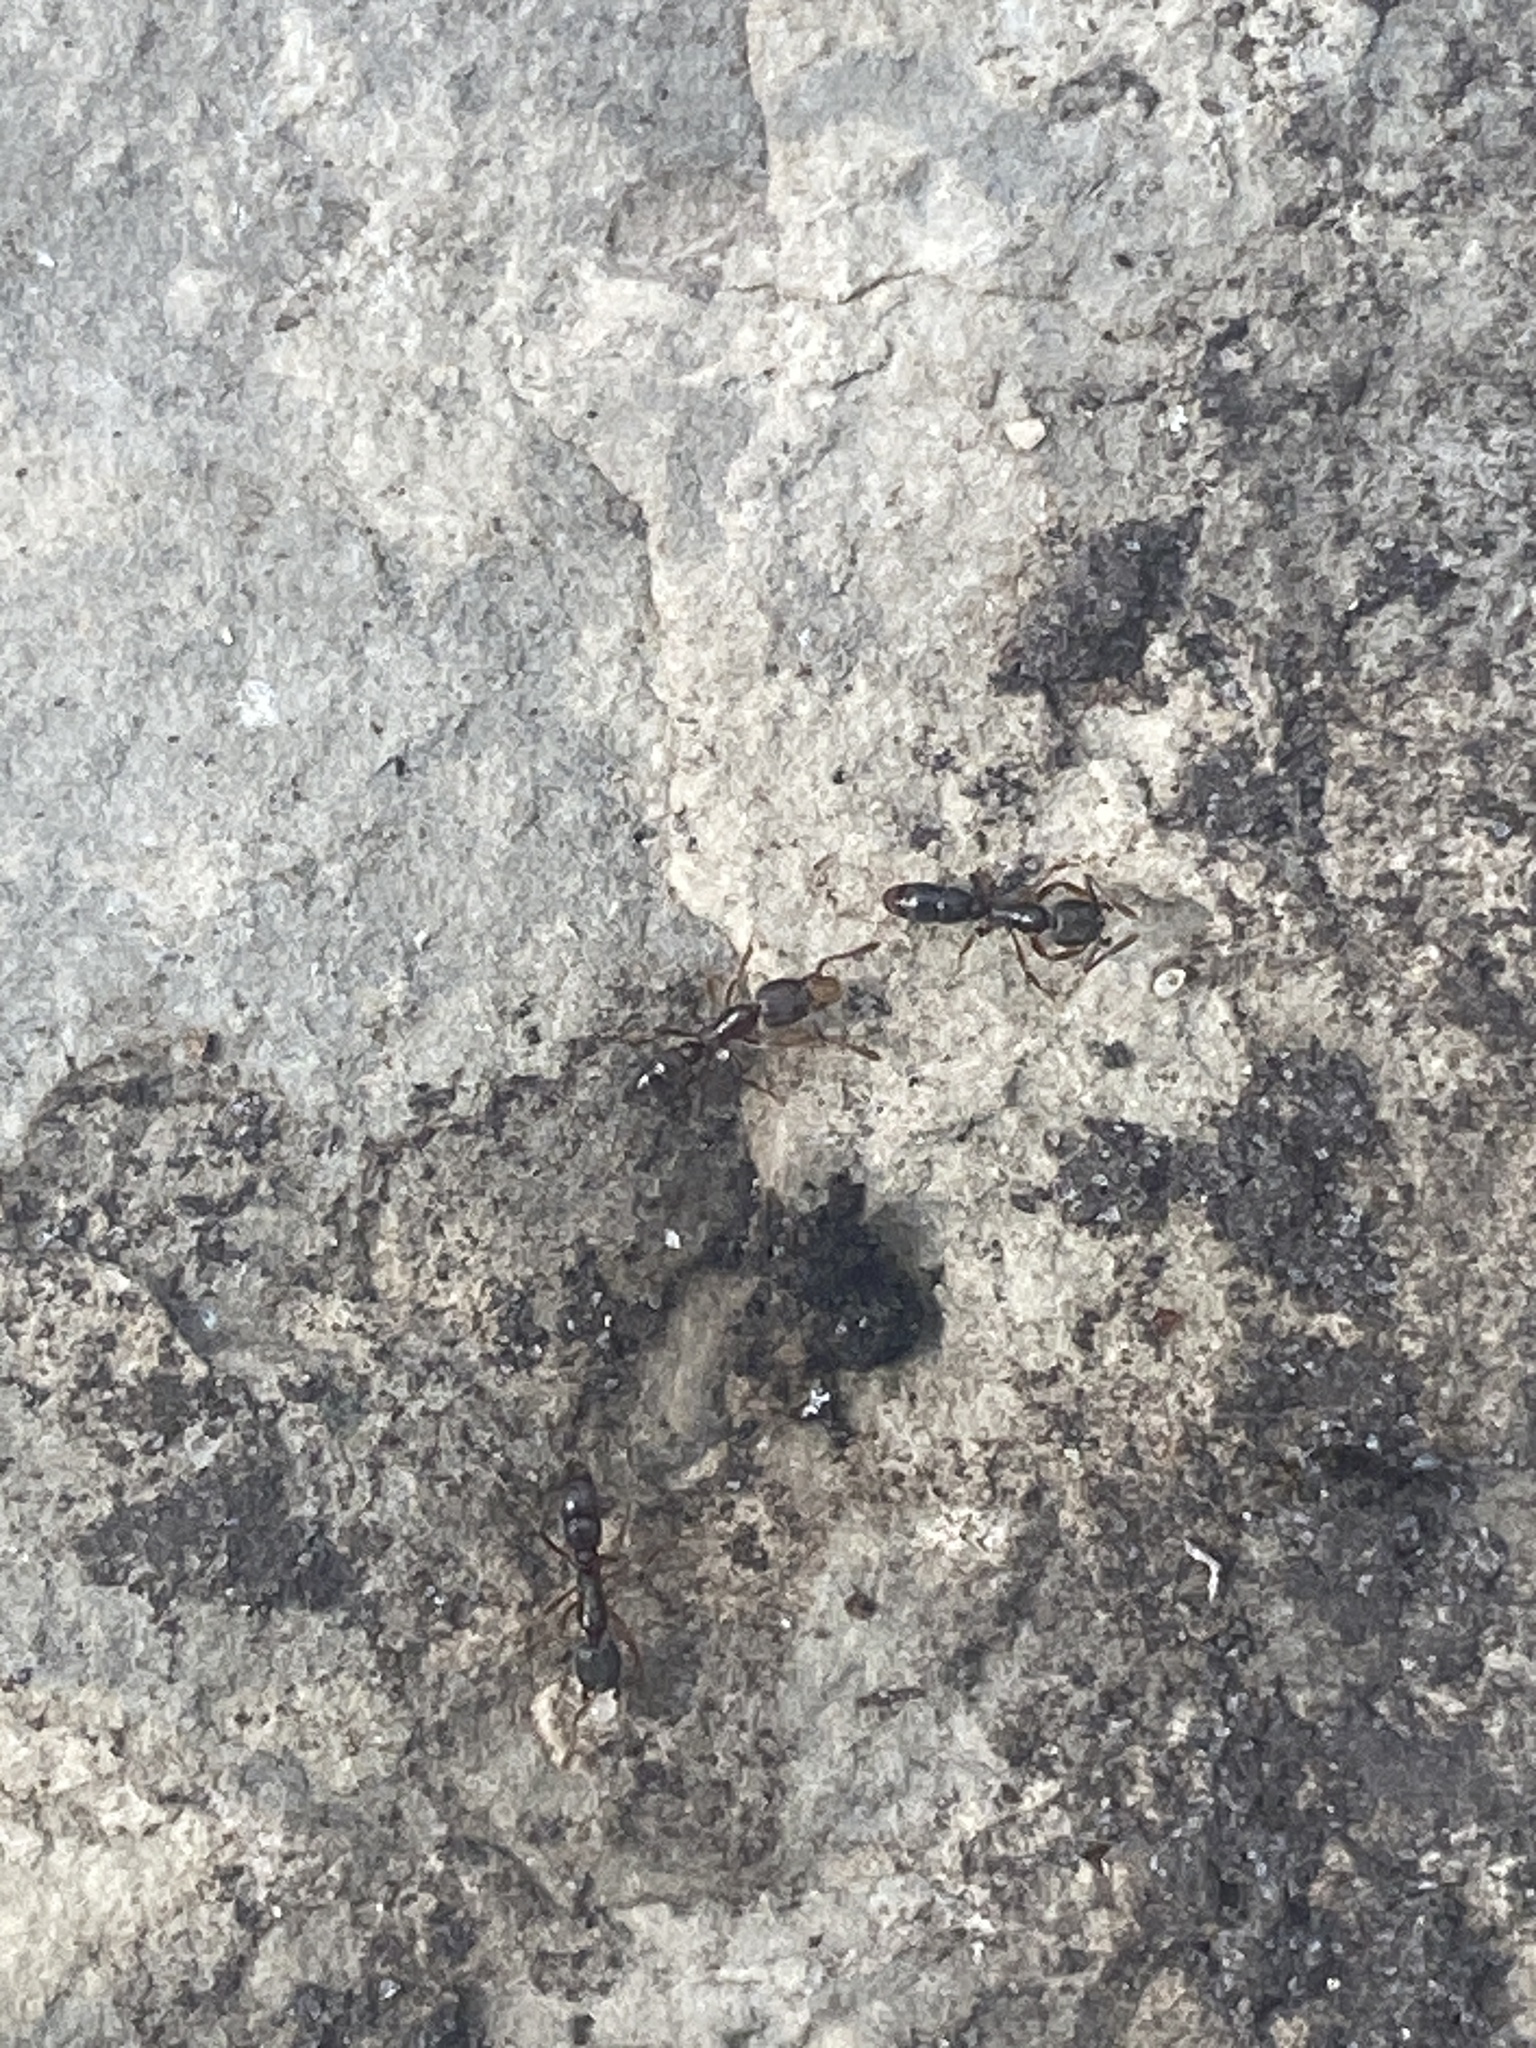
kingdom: Animalia
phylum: Arthropoda
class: Insecta
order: Hymenoptera
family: Formicidae
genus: Pachycondyla
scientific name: Pachycondyla chinensis
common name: Asian needle ant
